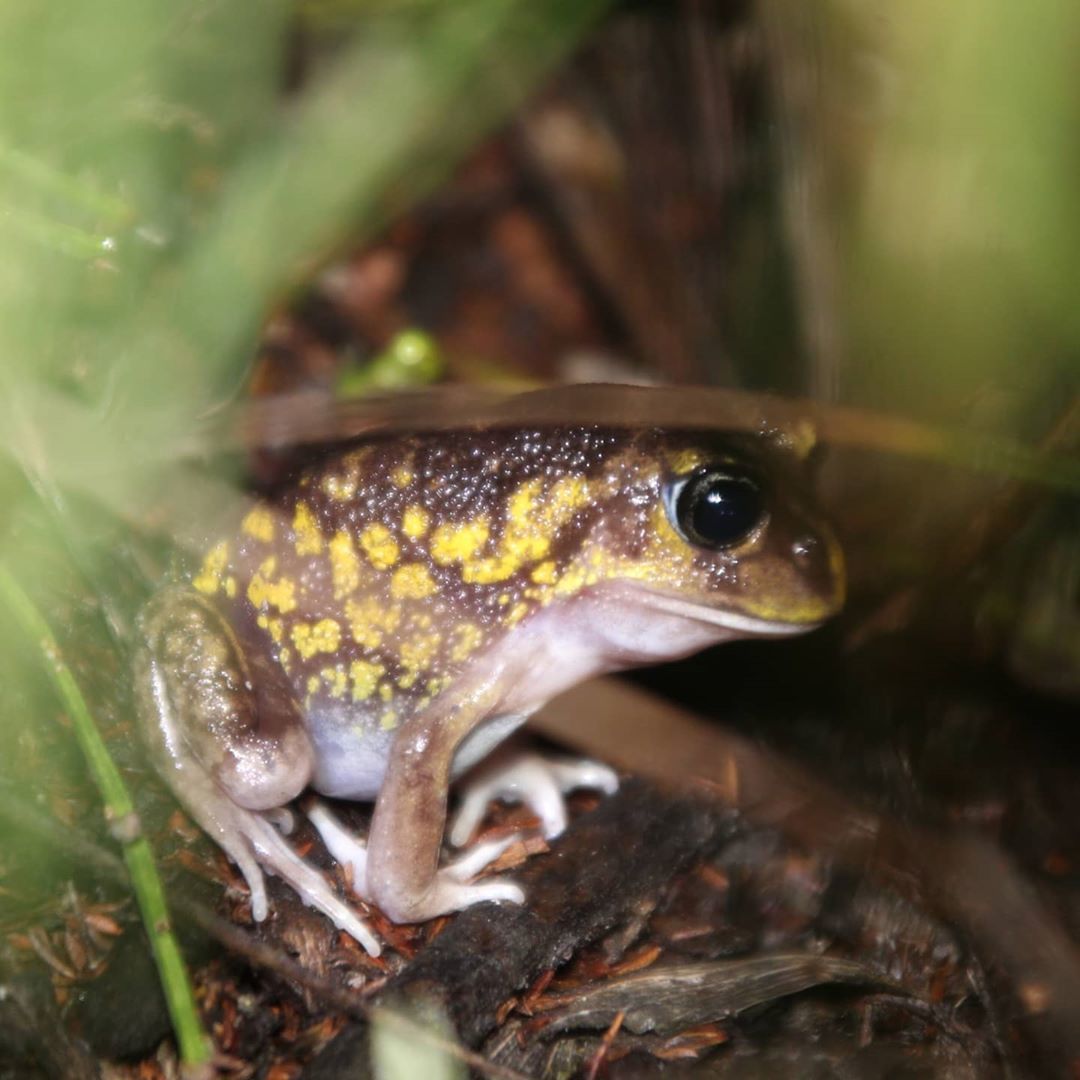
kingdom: Animalia
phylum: Chordata
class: Amphibia
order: Anura
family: Limnodynastidae
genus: Heleioporus
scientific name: Heleioporus eyrei
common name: Moaning frog
